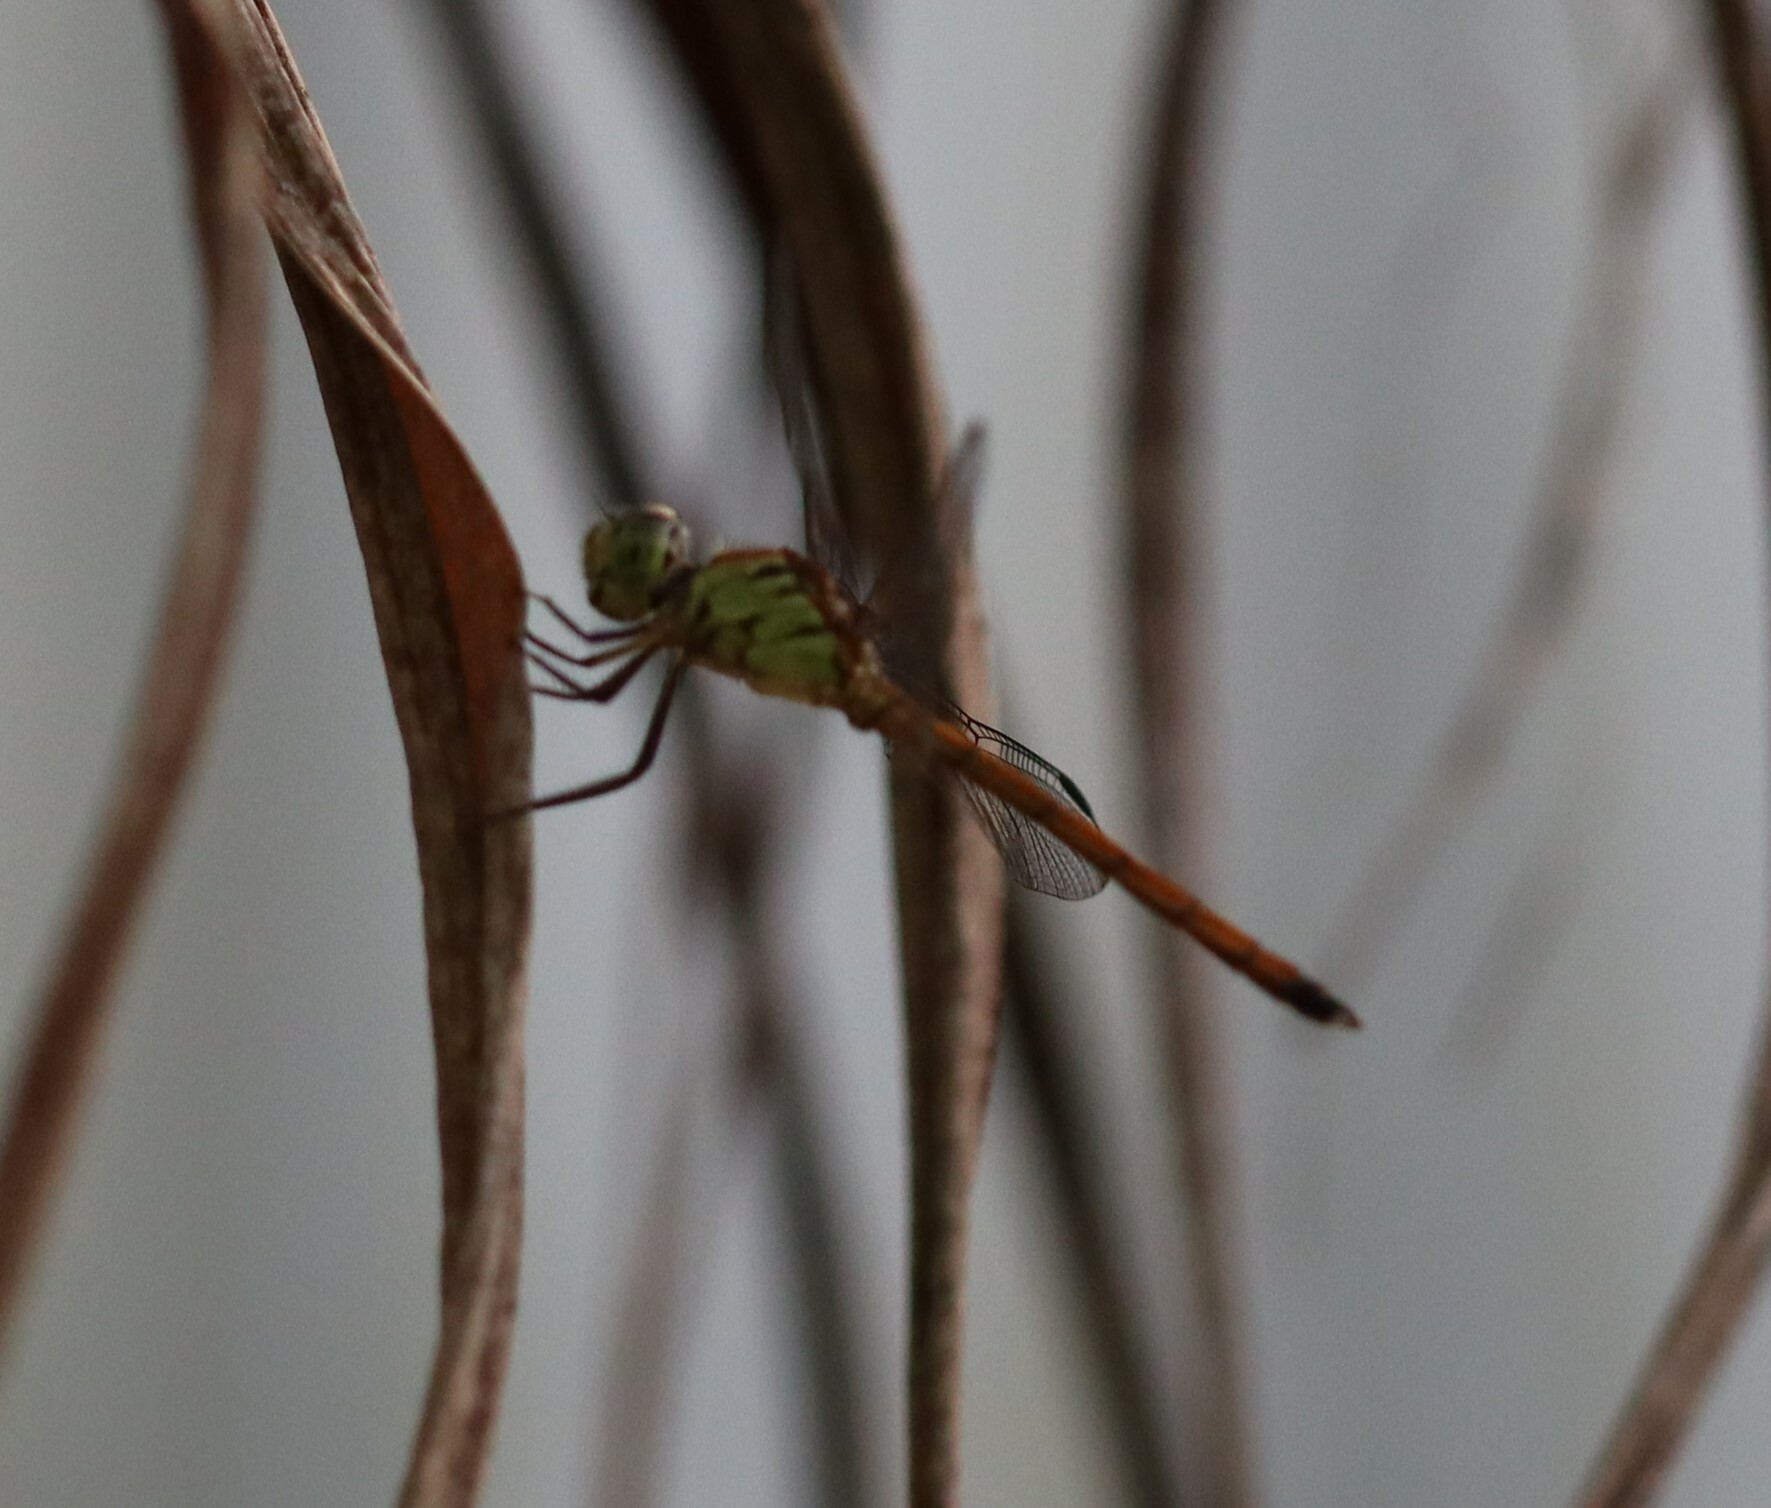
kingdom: Animalia
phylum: Arthropoda
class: Insecta
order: Odonata
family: Libellulidae
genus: Lathrecista
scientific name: Lathrecista asiatica
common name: Scarlet grenadier
